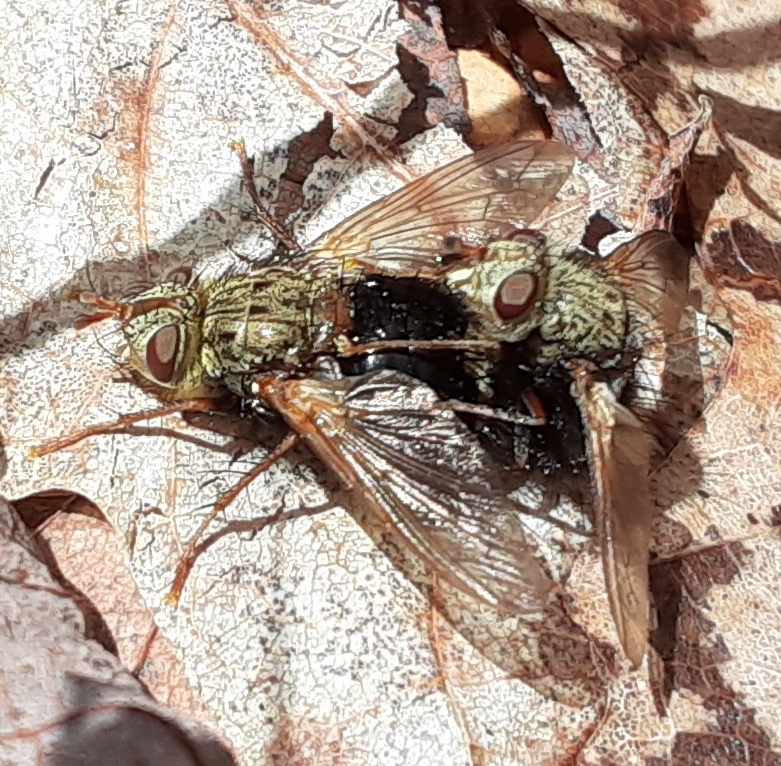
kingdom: Animalia
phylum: Arthropoda
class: Insecta
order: Diptera
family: Tachinidae
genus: Epalpus
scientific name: Epalpus signifer
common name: Early tachinid fly
